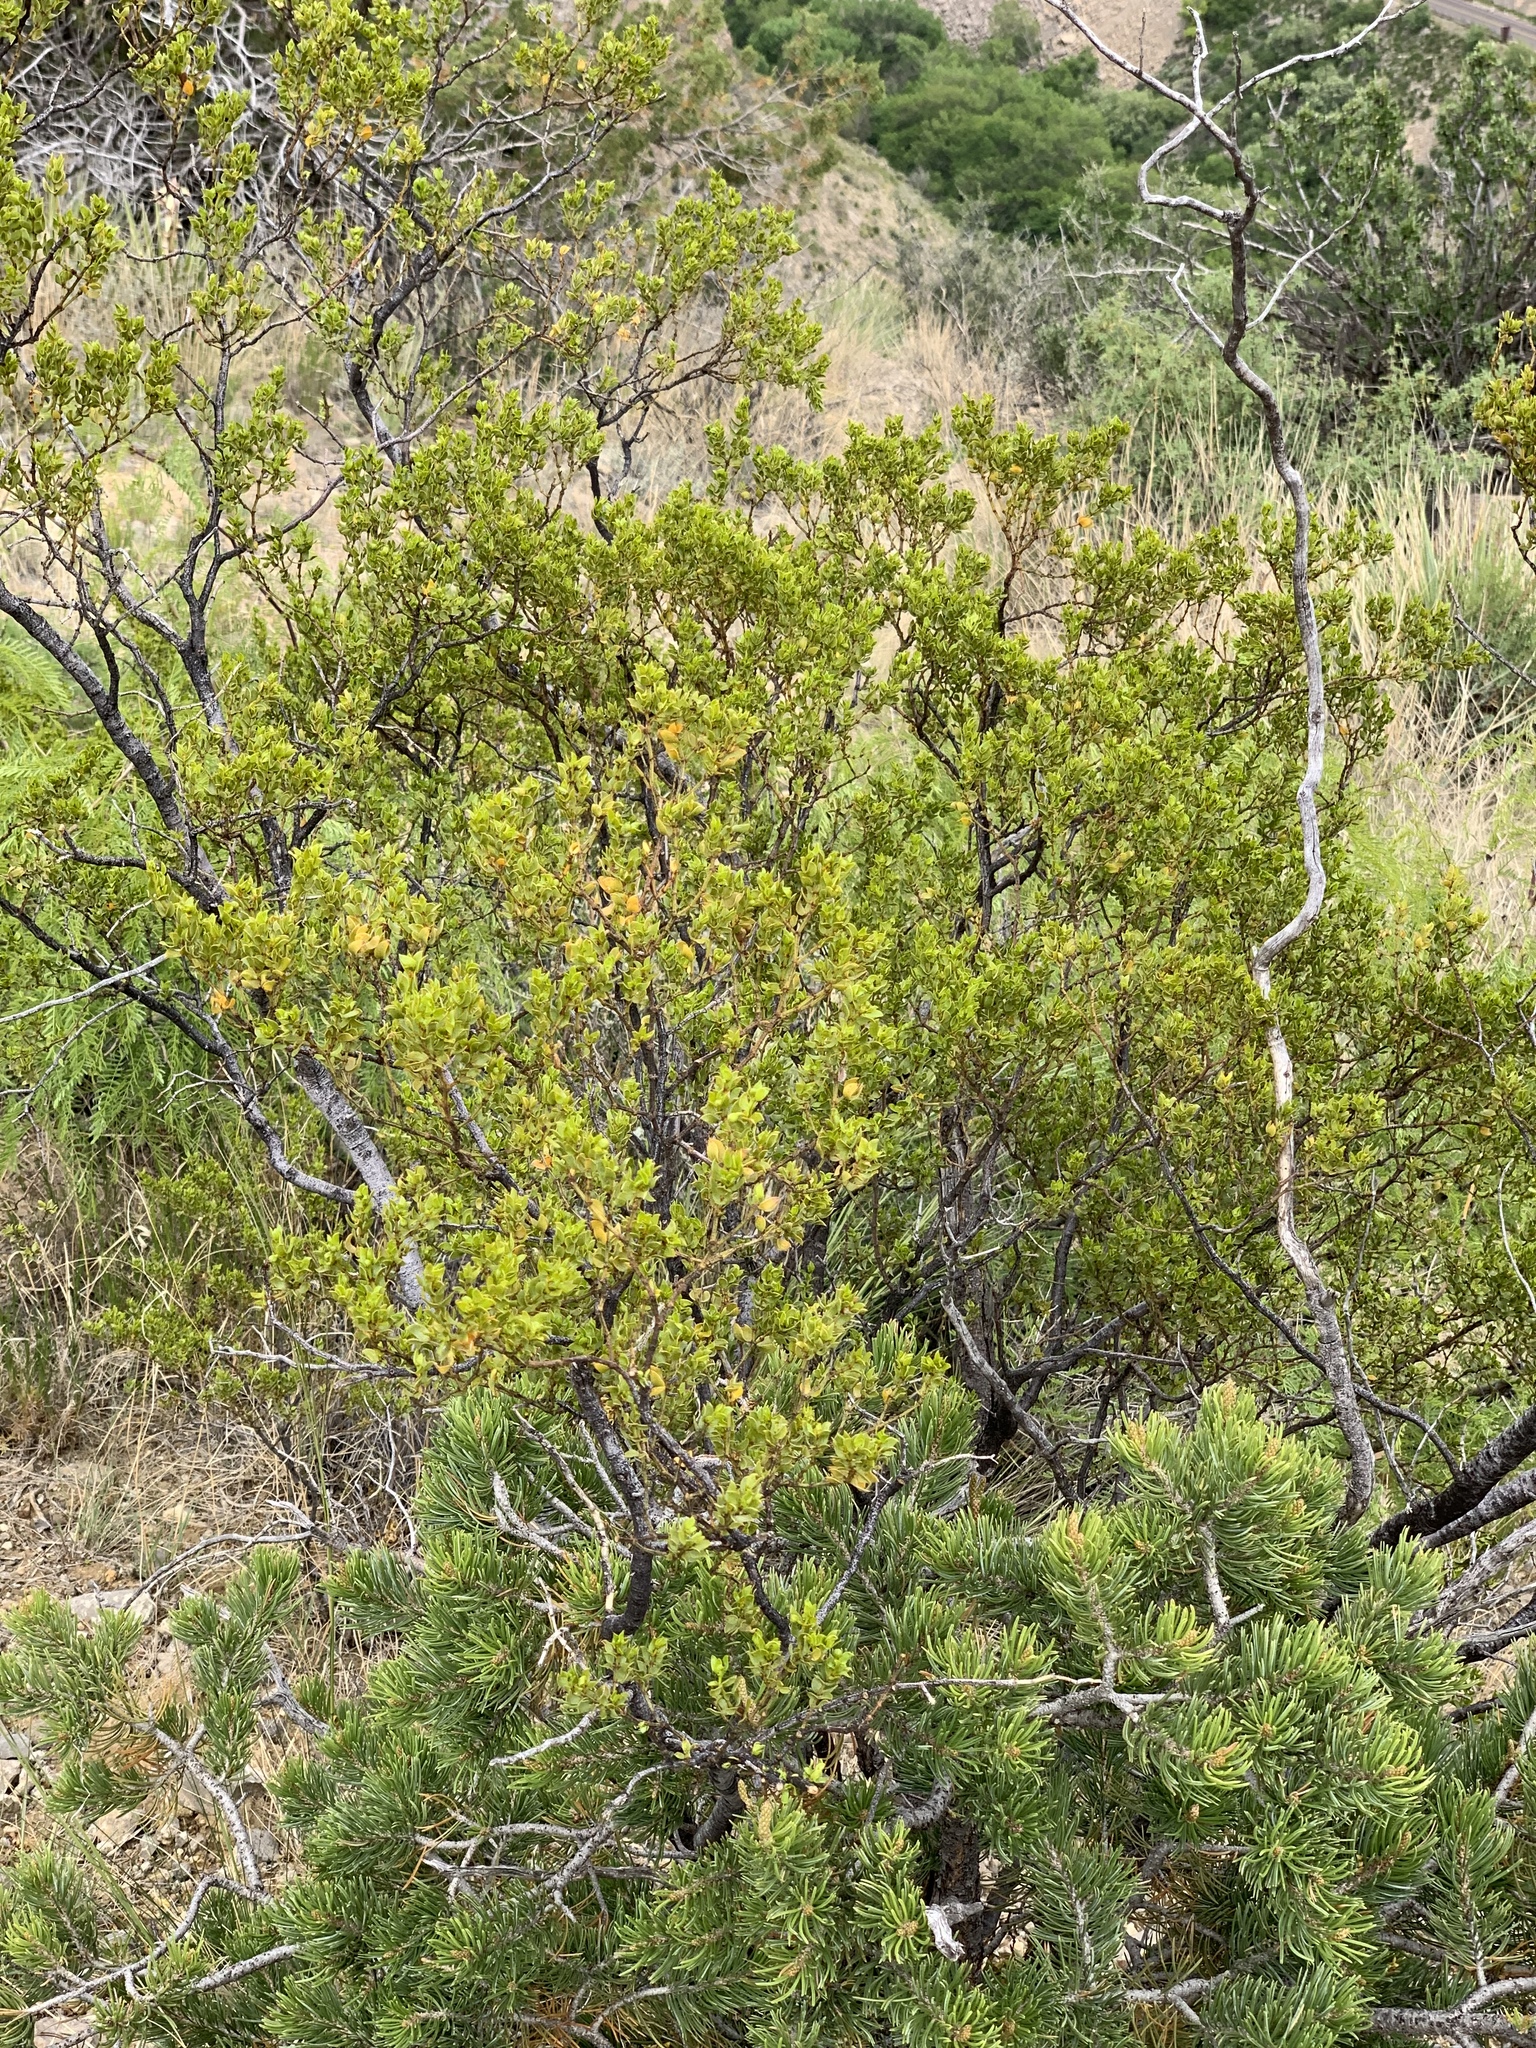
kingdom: Plantae
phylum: Tracheophyta
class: Magnoliopsida
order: Zygophyllales
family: Zygophyllaceae
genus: Larrea
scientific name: Larrea tridentata
